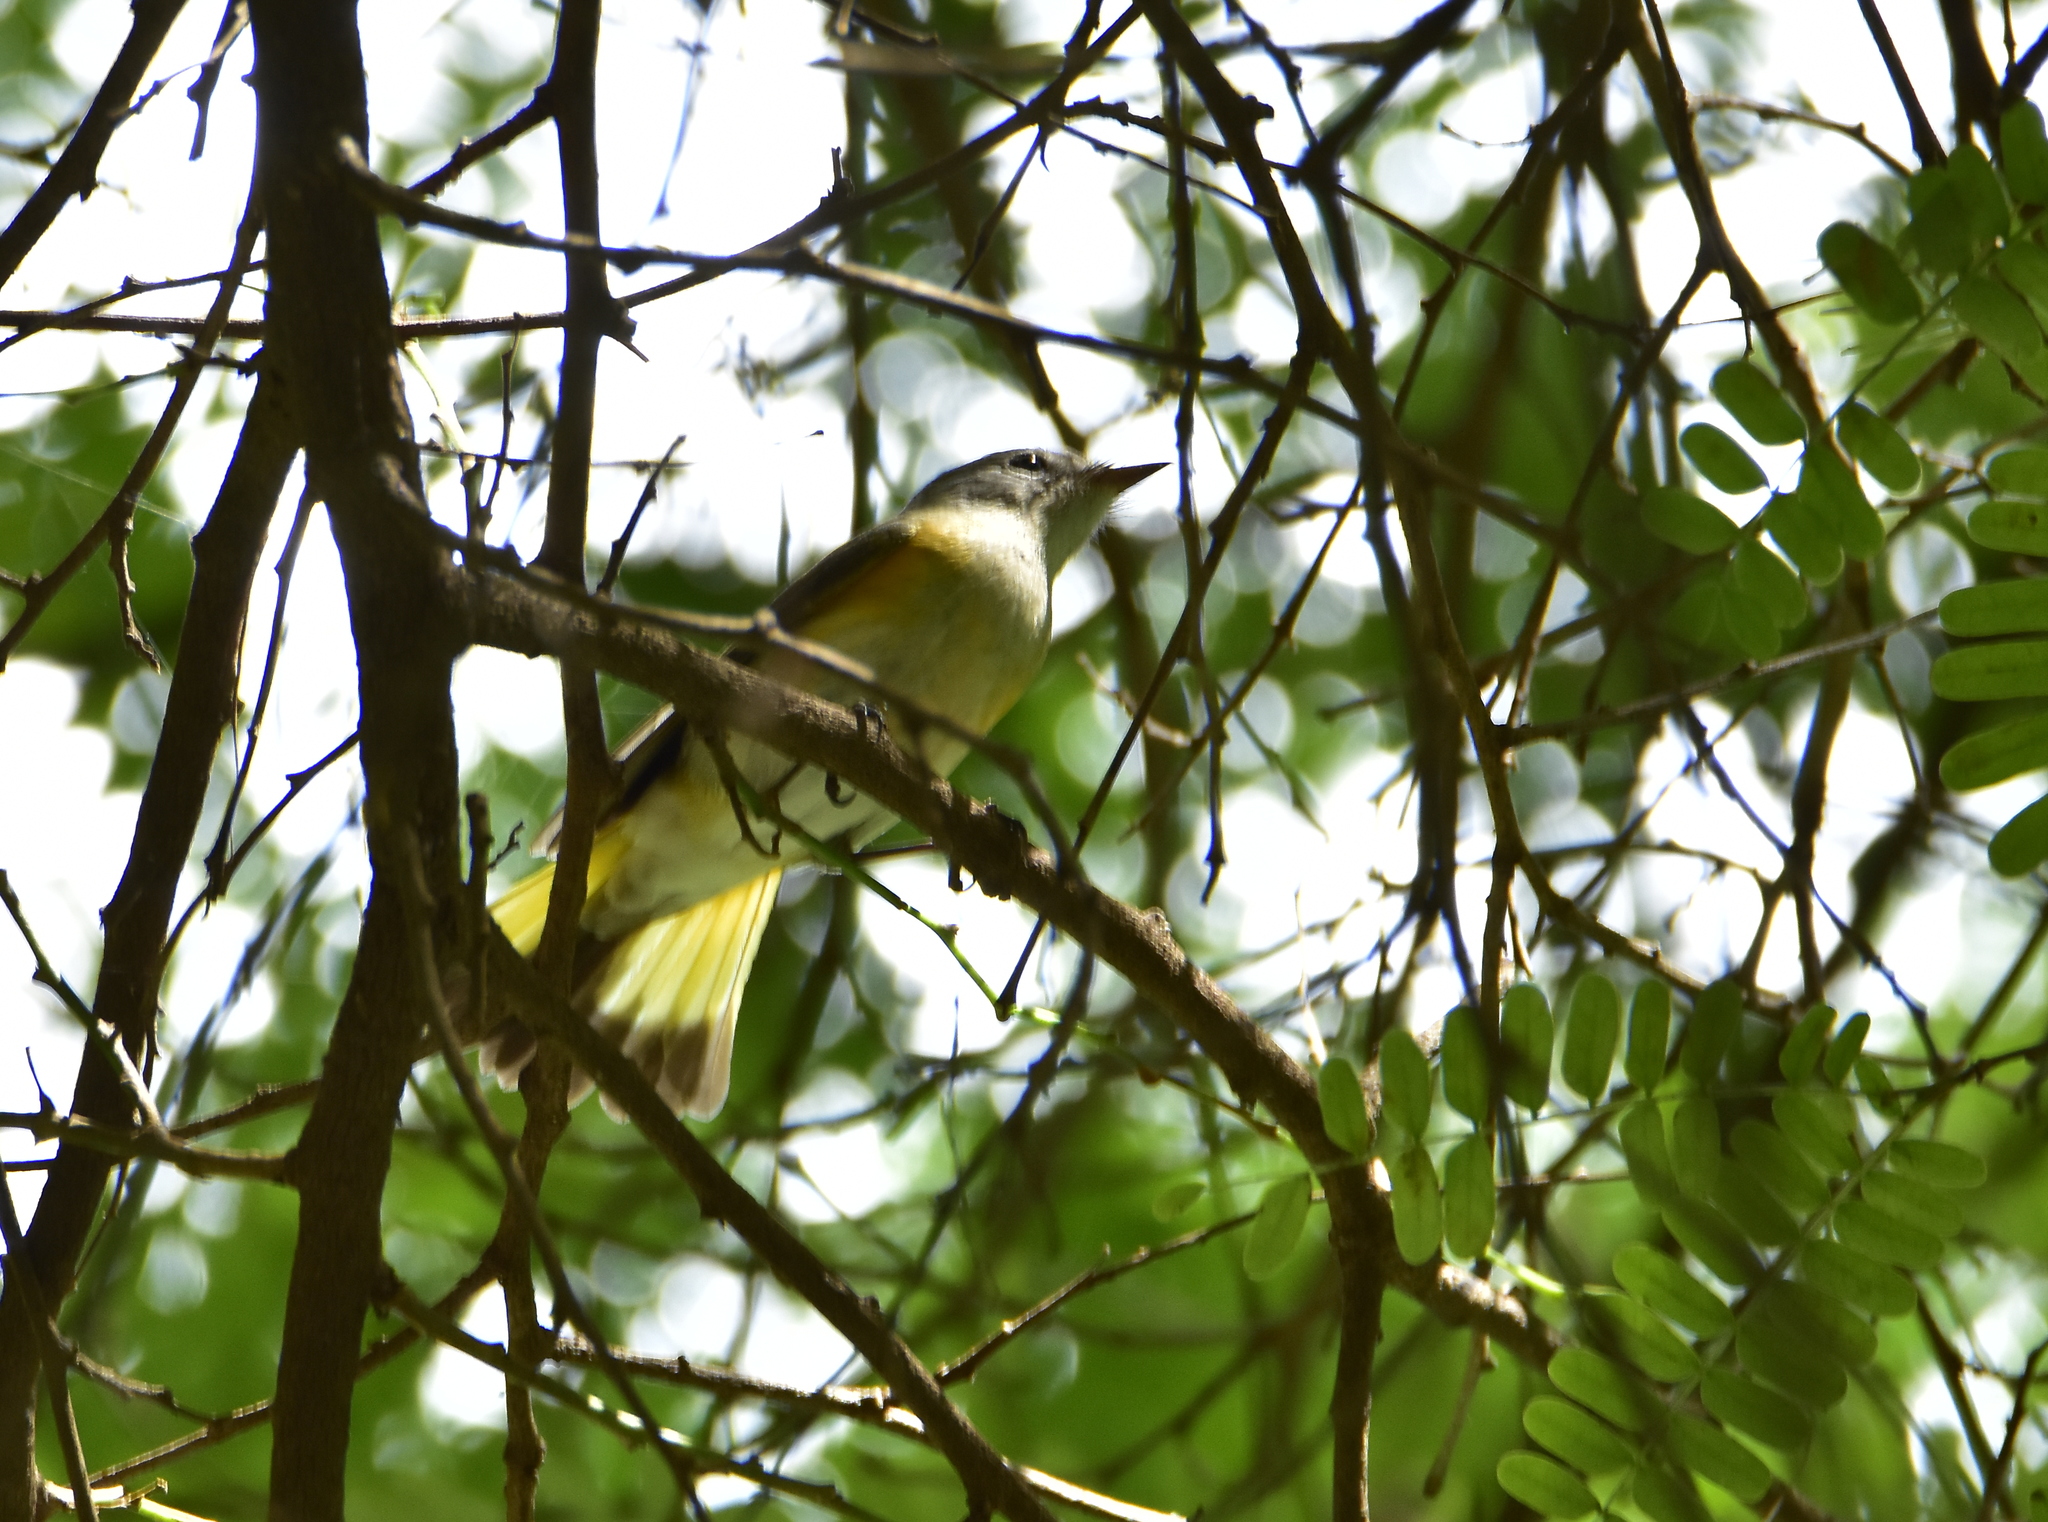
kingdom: Animalia
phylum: Chordata
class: Aves
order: Passeriformes
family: Parulidae
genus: Setophaga
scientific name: Setophaga ruticilla
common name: American redstart
